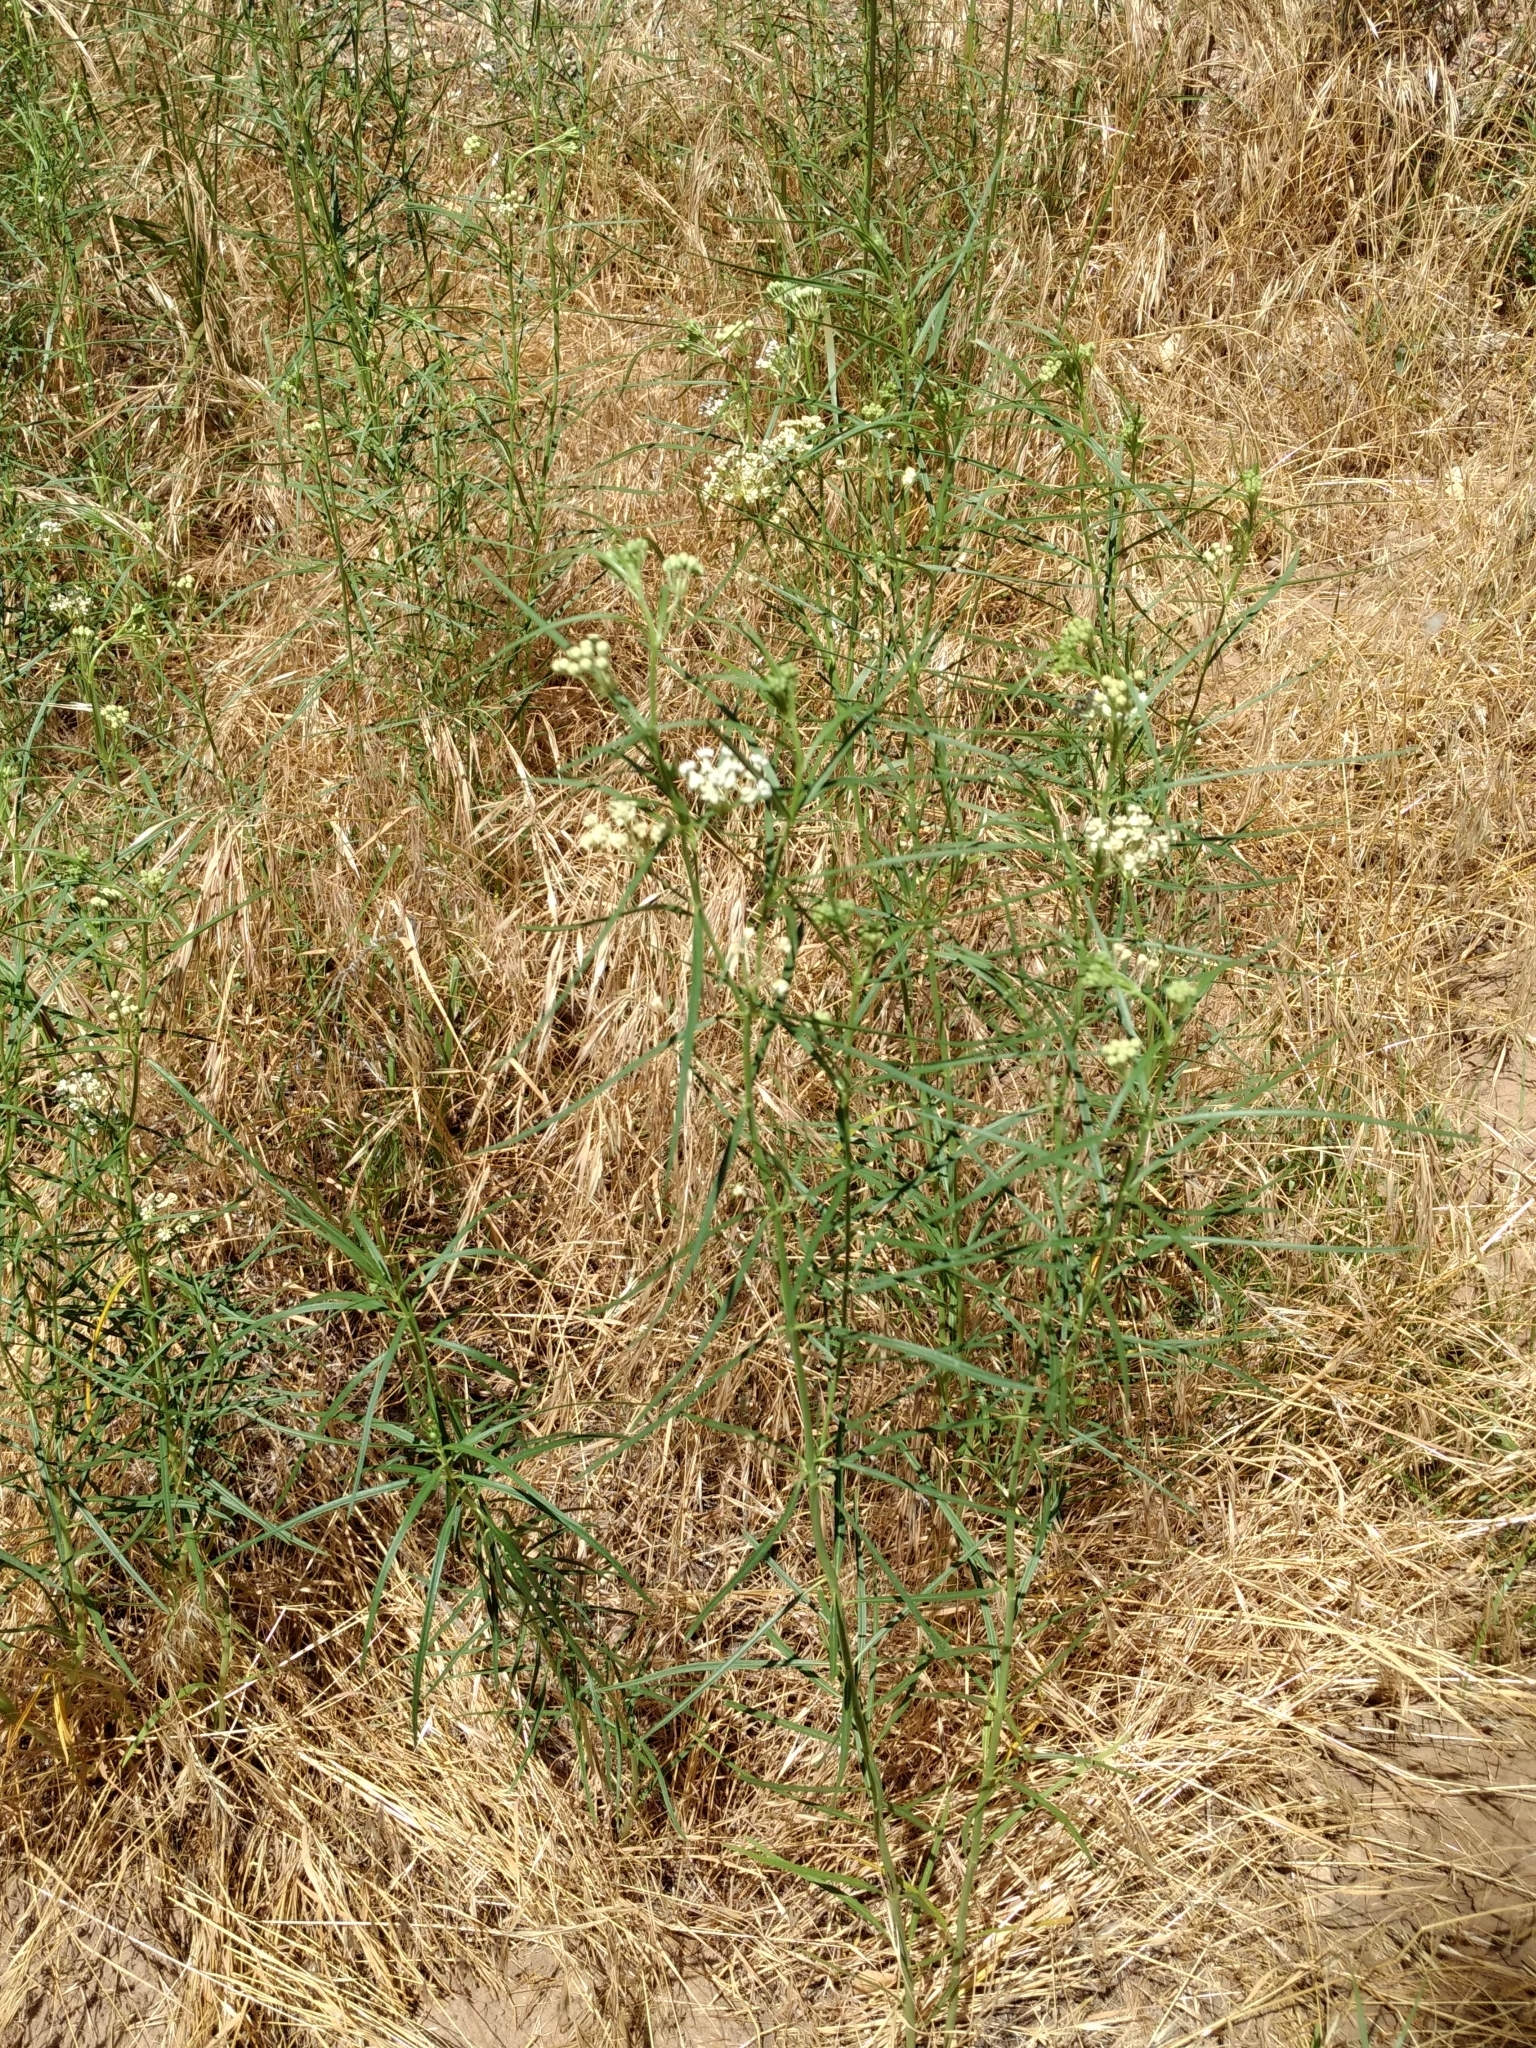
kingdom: Plantae
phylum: Tracheophyta
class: Magnoliopsida
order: Gentianales
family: Apocynaceae
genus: Asclepias
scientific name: Asclepias subverticillata
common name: Horsetail milkweed
